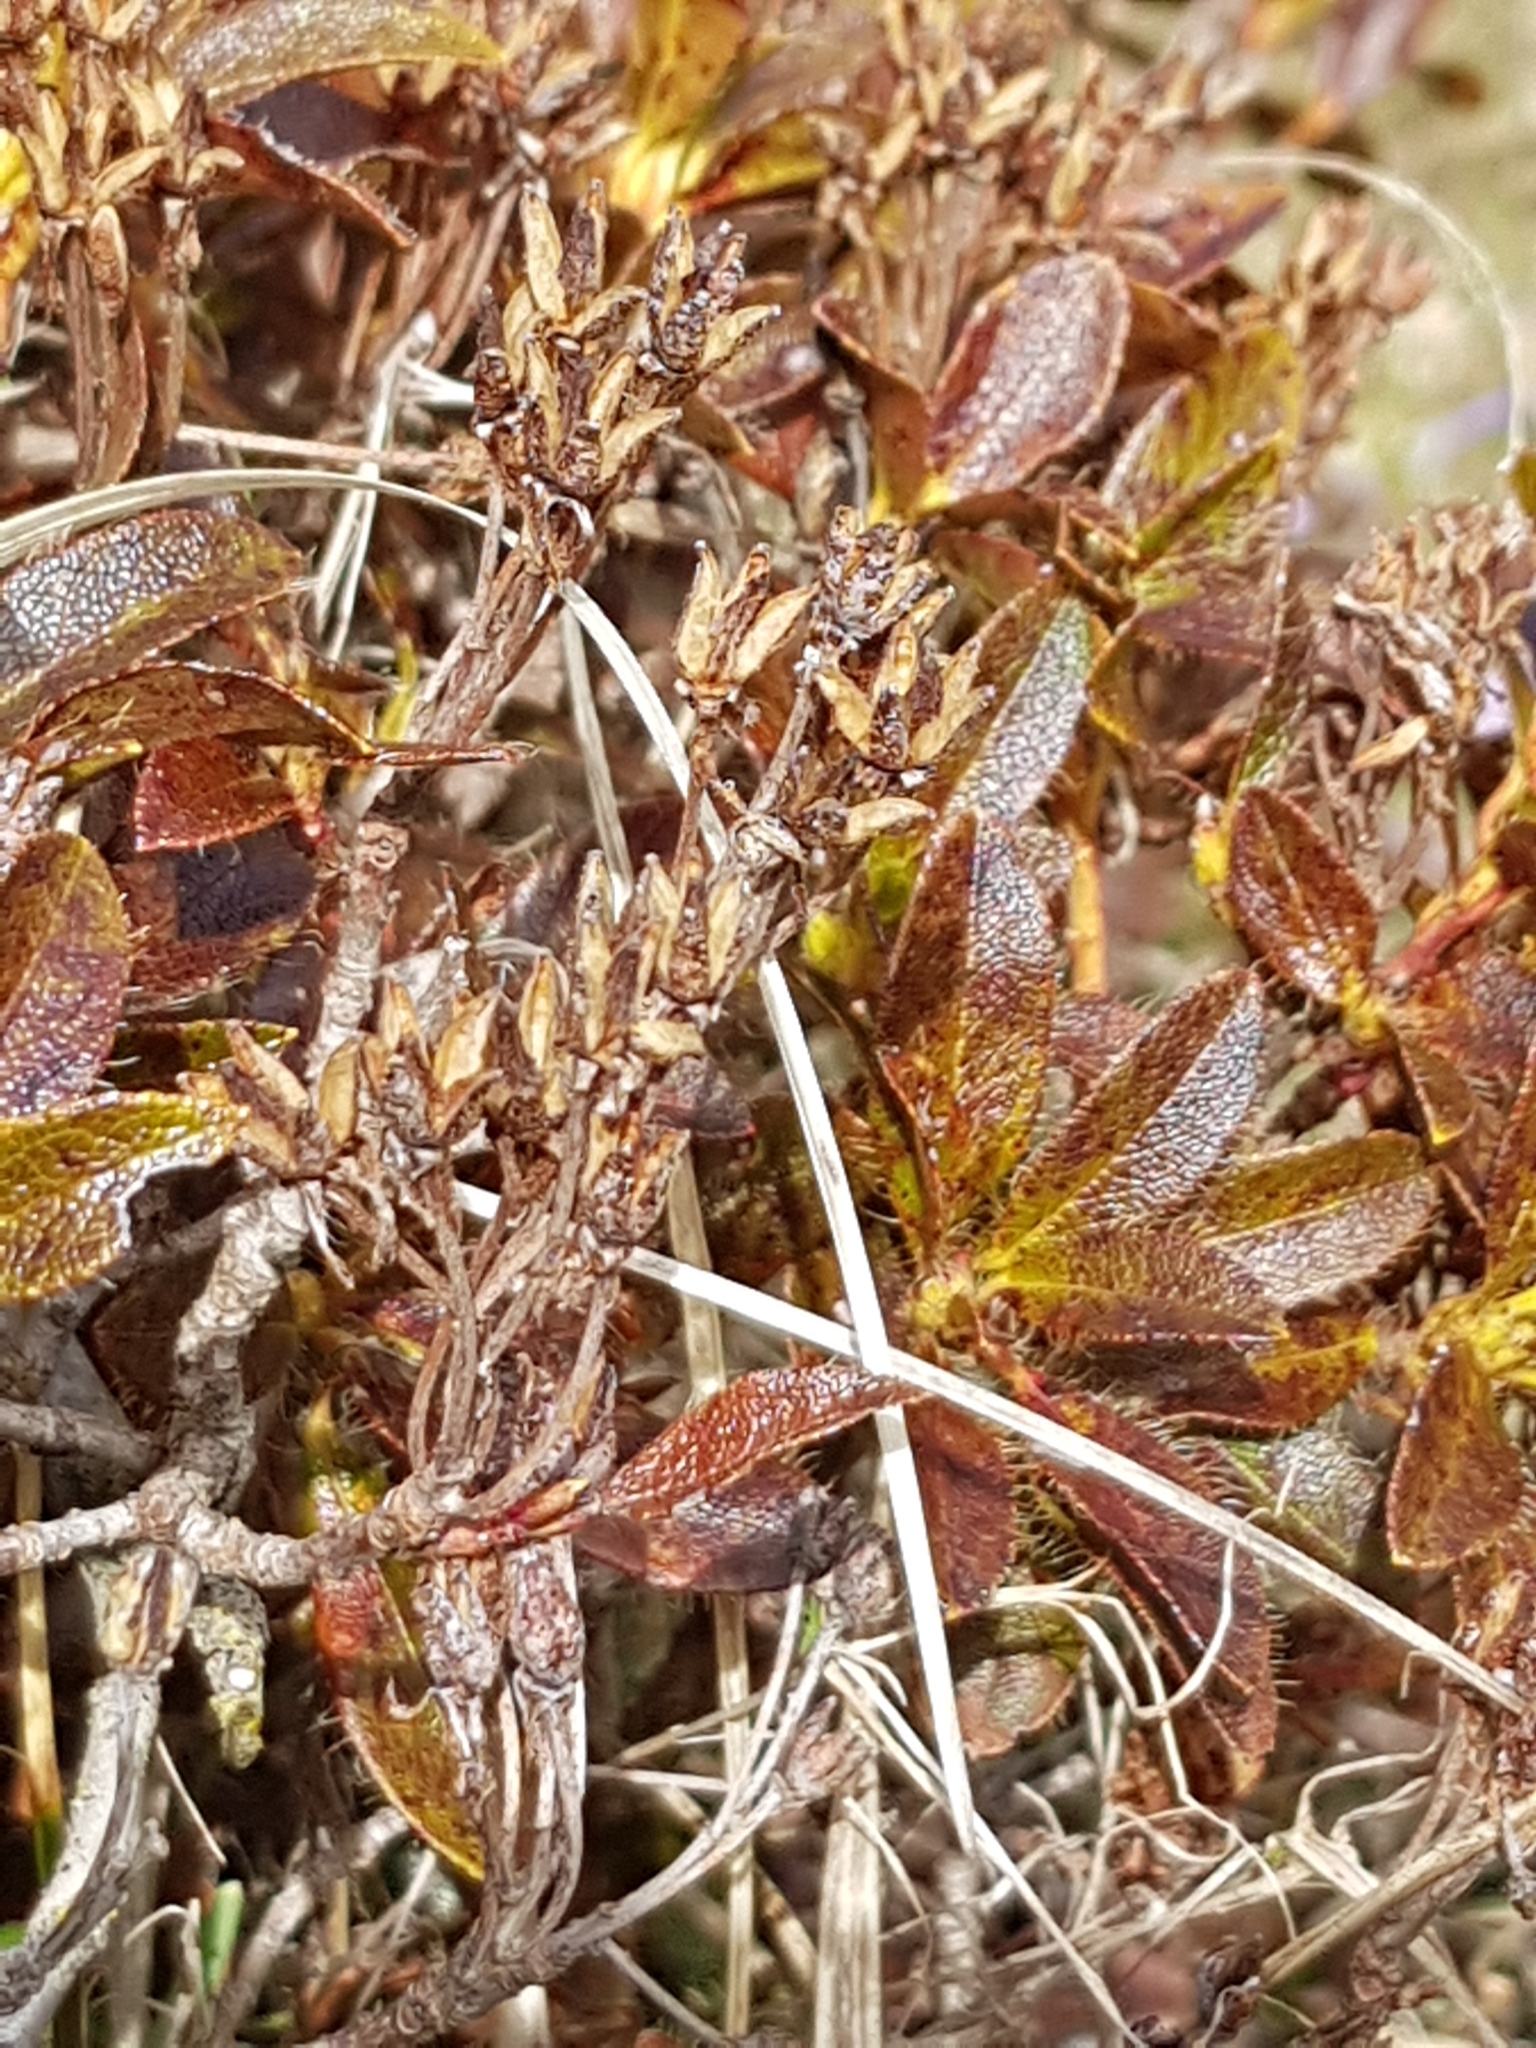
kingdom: Plantae
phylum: Tracheophyta
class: Magnoliopsida
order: Ericales
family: Ericaceae
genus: Rhododendron
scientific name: Rhododendron hirsutum
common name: Hairy alpenrose
